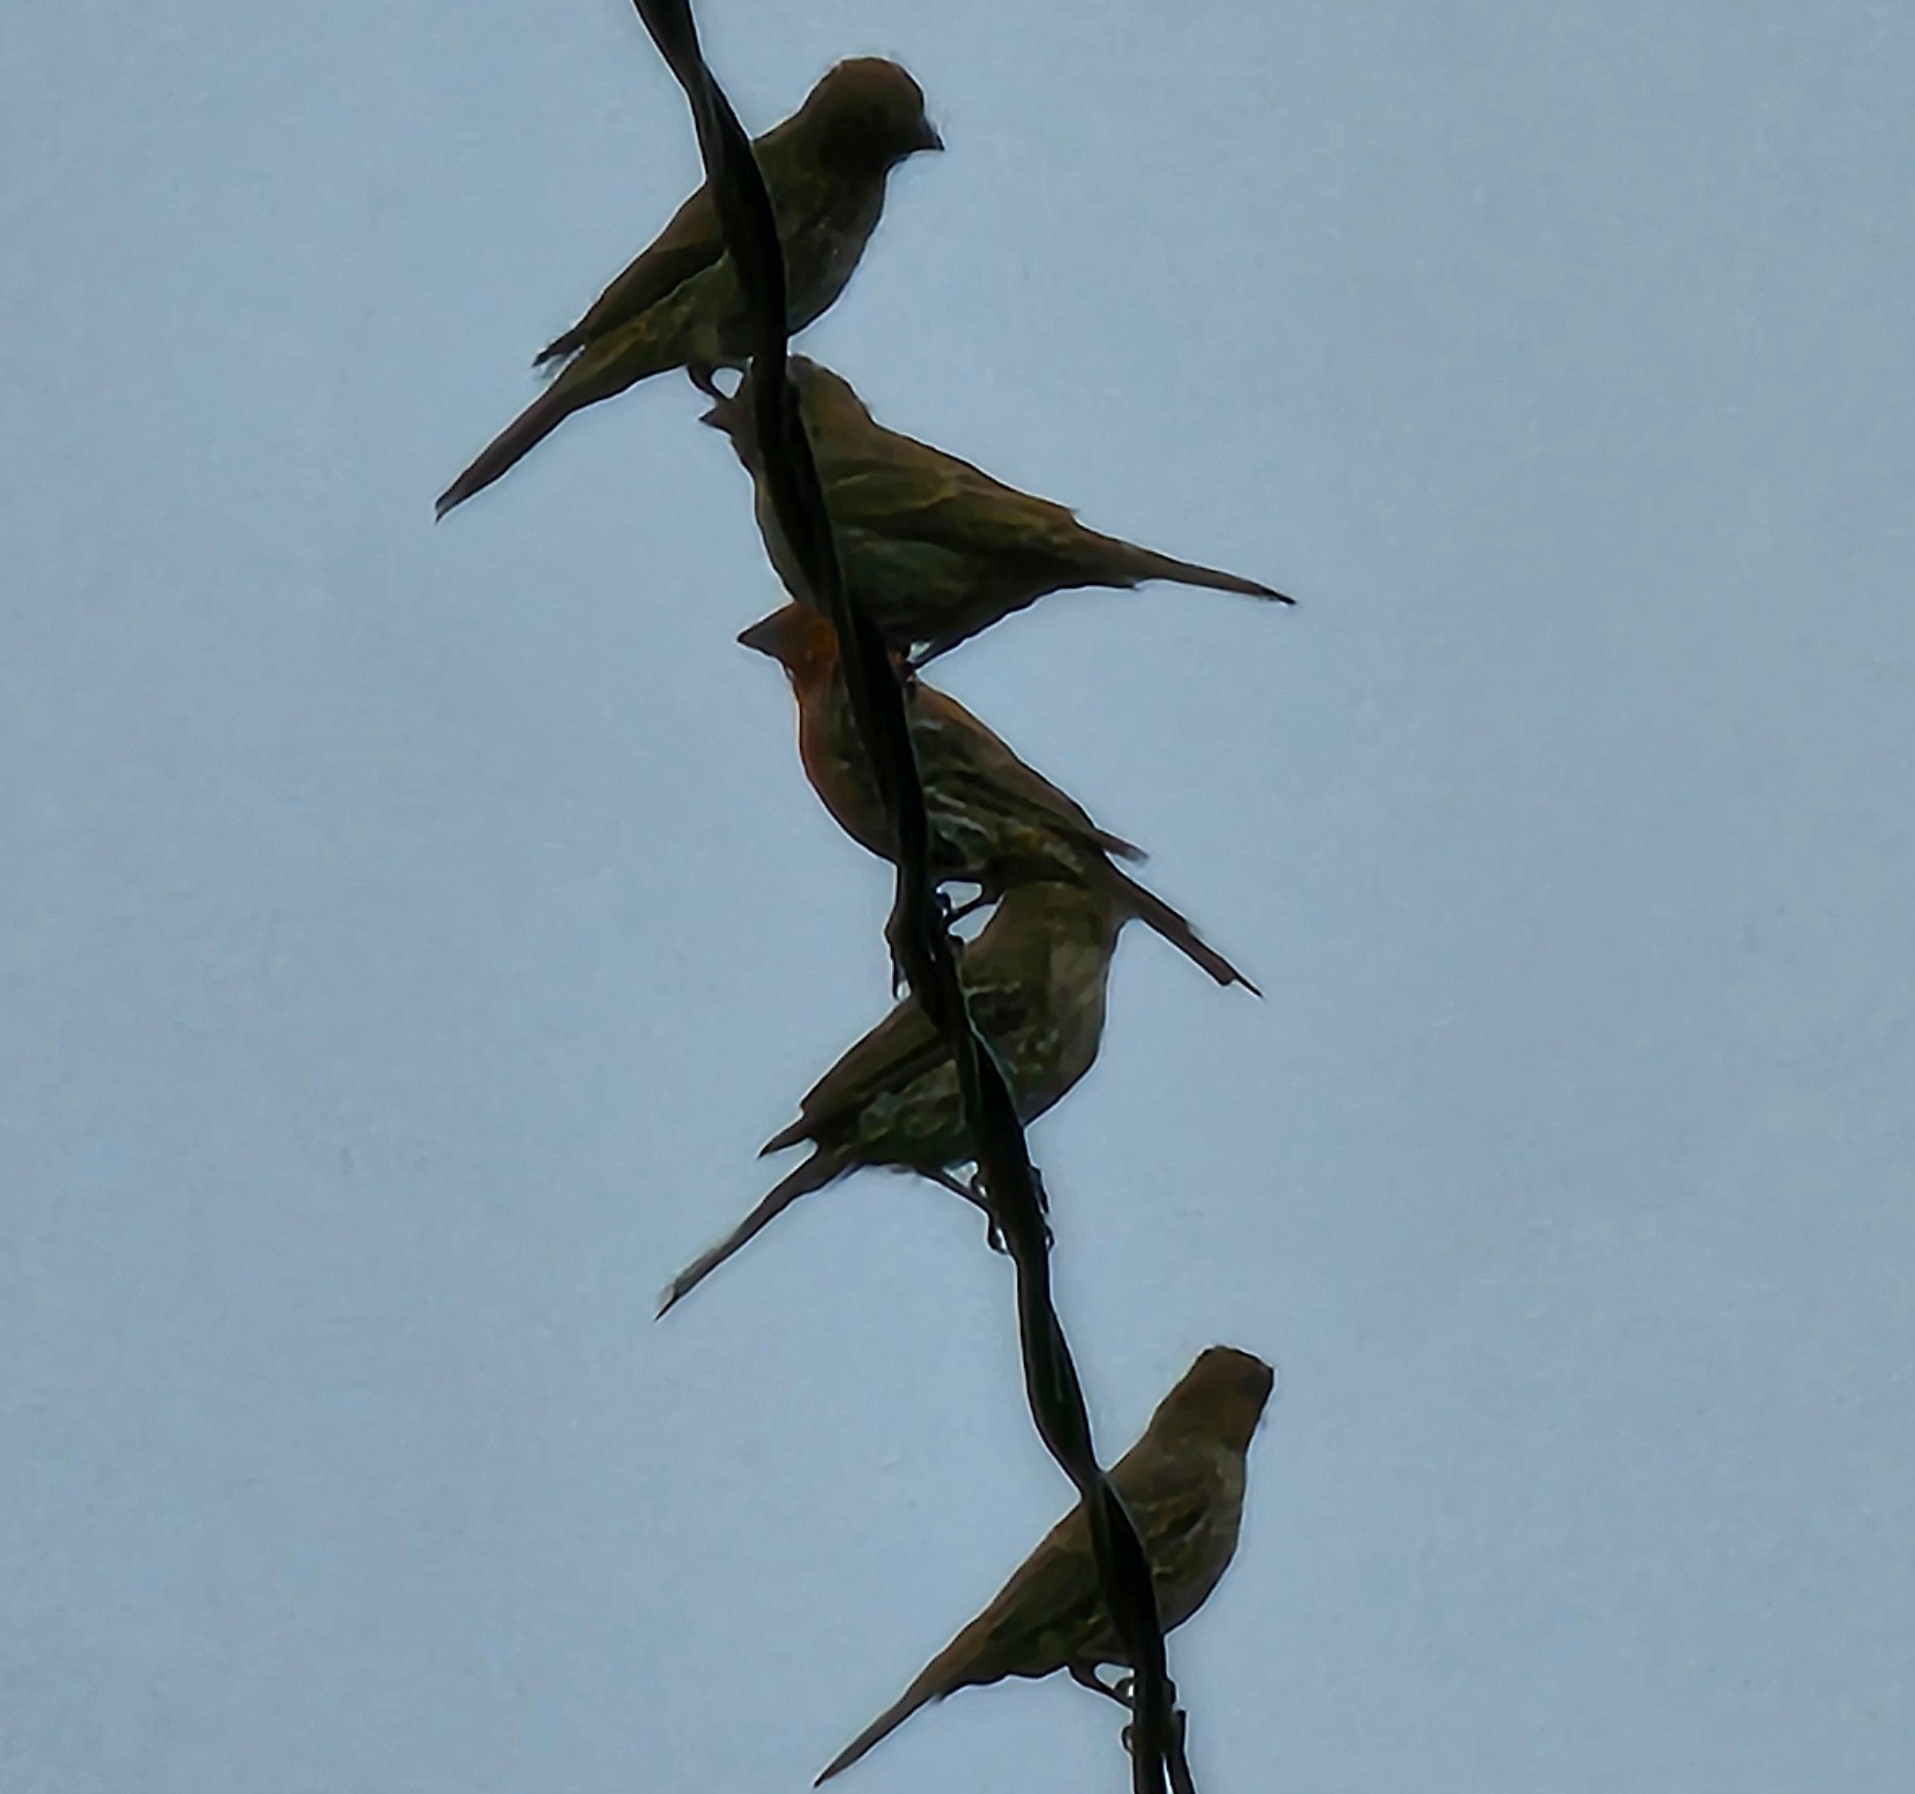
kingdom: Animalia
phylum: Chordata
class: Aves
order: Passeriformes
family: Fringillidae
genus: Haemorhous
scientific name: Haemorhous mexicanus
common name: House finch
